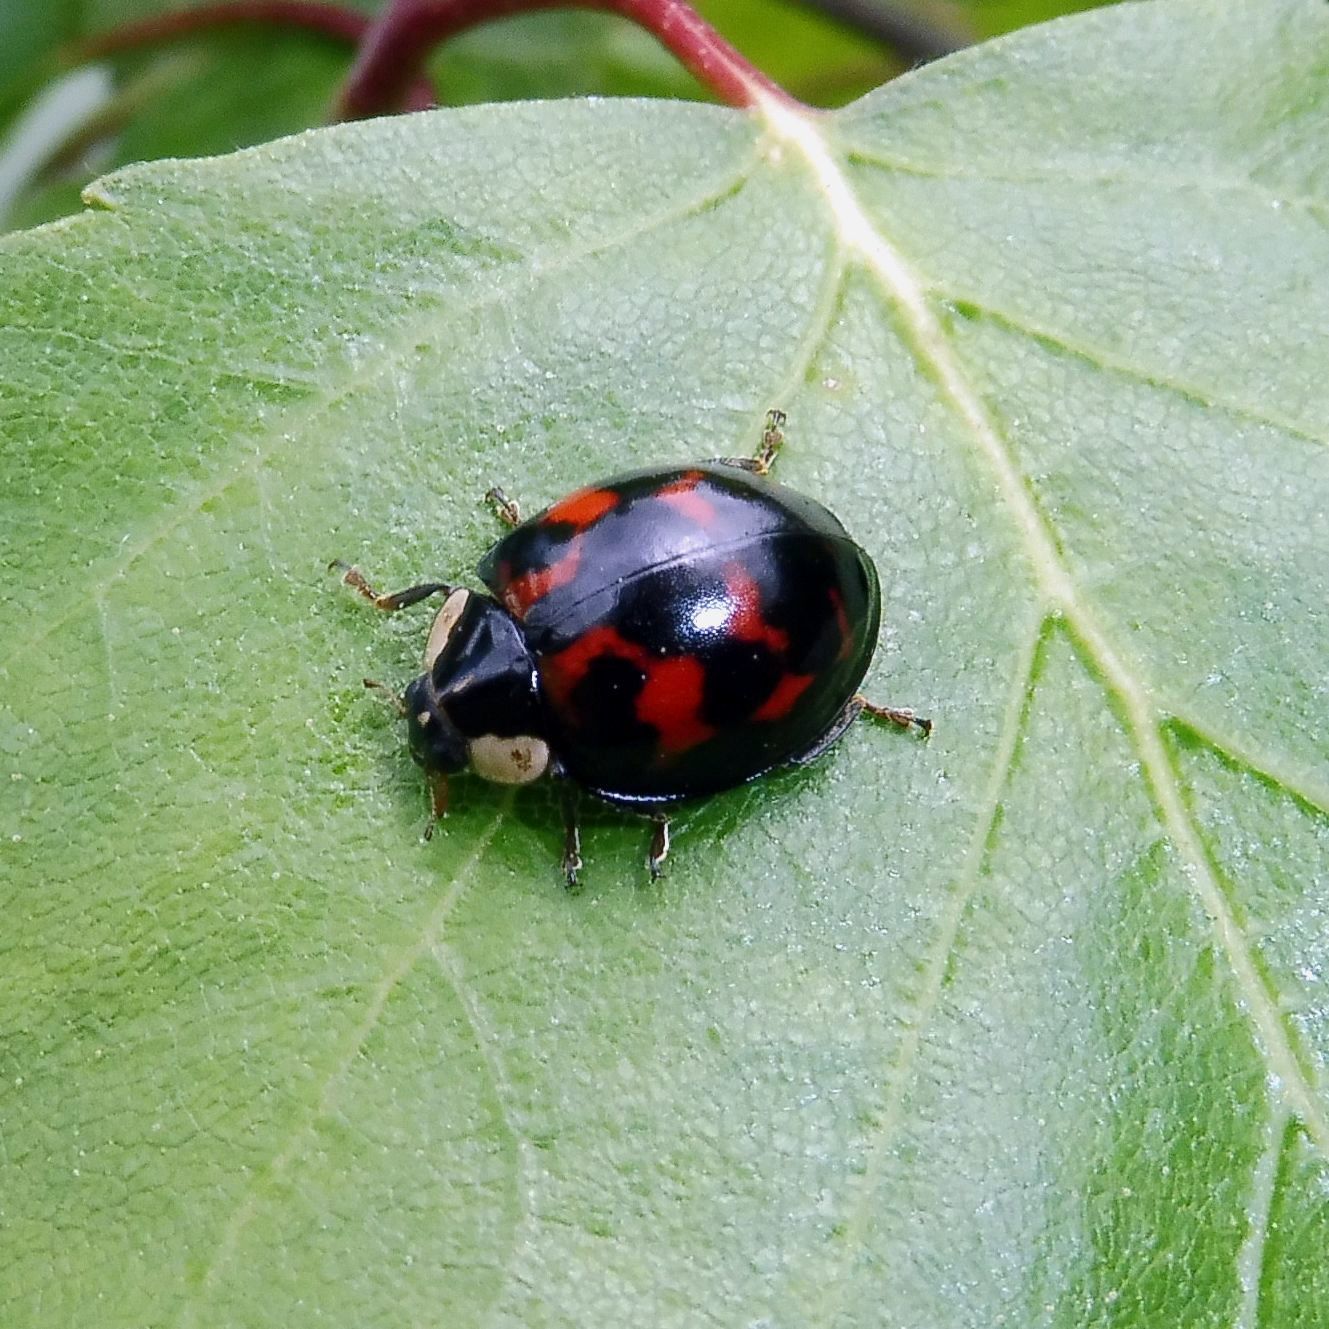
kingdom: Animalia
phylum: Arthropoda
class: Insecta
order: Coleoptera
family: Coccinellidae
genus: Harmonia
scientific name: Harmonia axyridis
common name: Harlequin ladybird
